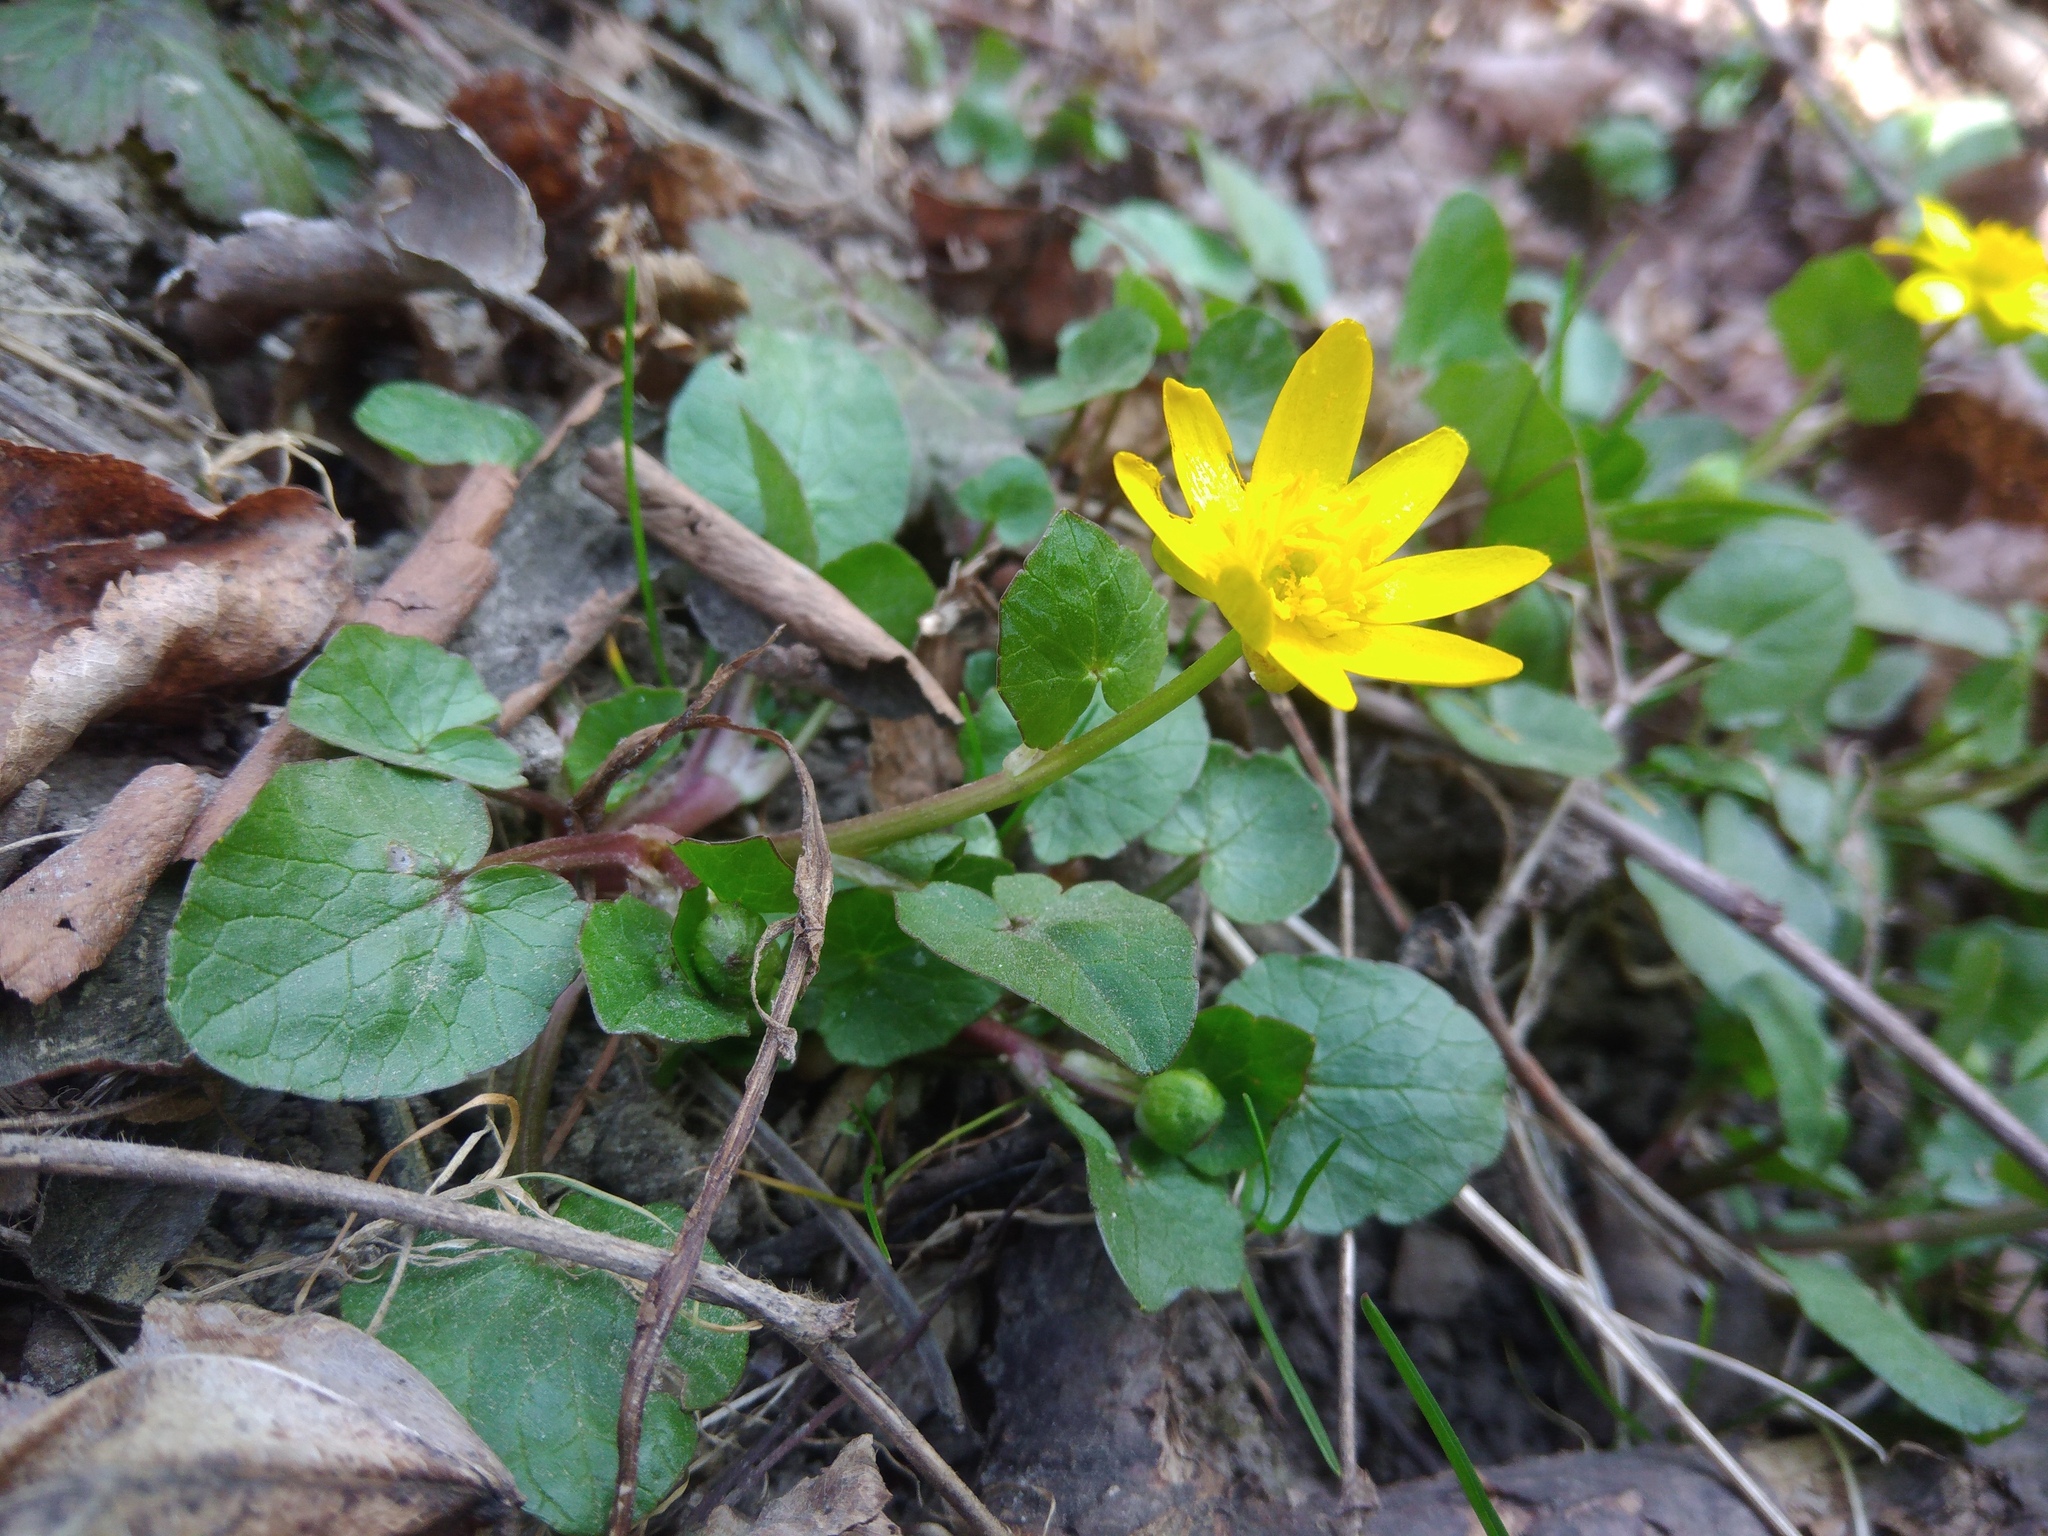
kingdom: Plantae
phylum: Tracheophyta
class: Magnoliopsida
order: Ranunculales
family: Ranunculaceae
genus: Ficaria
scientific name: Ficaria verna
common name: Lesser celandine
